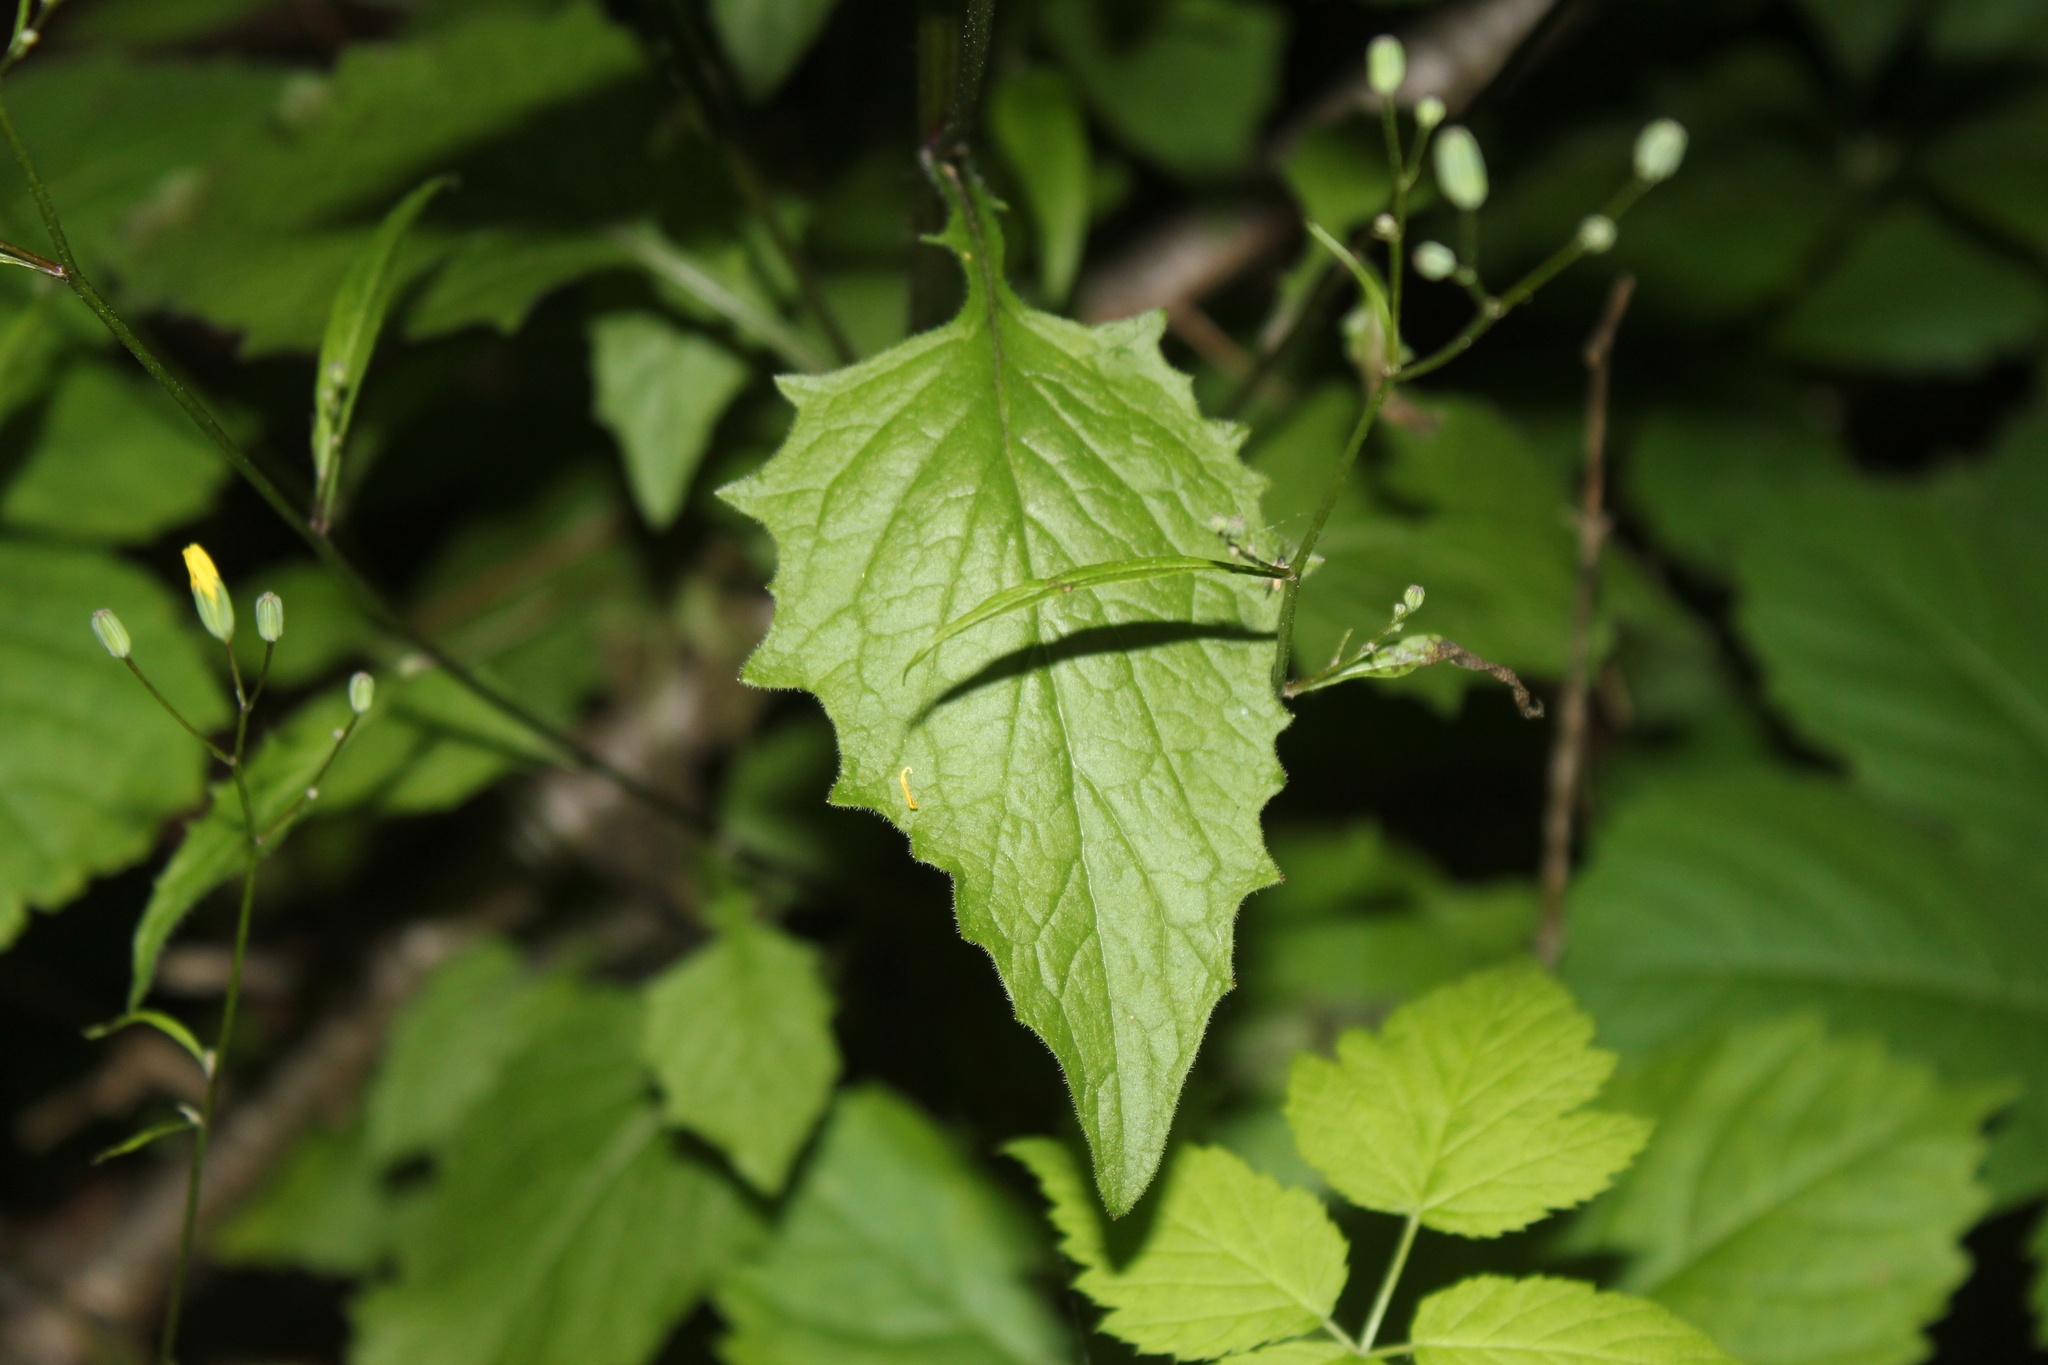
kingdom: Plantae
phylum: Tracheophyta
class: Magnoliopsida
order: Asterales
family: Asteraceae
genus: Lapsana
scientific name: Lapsana communis
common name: Nipplewort
